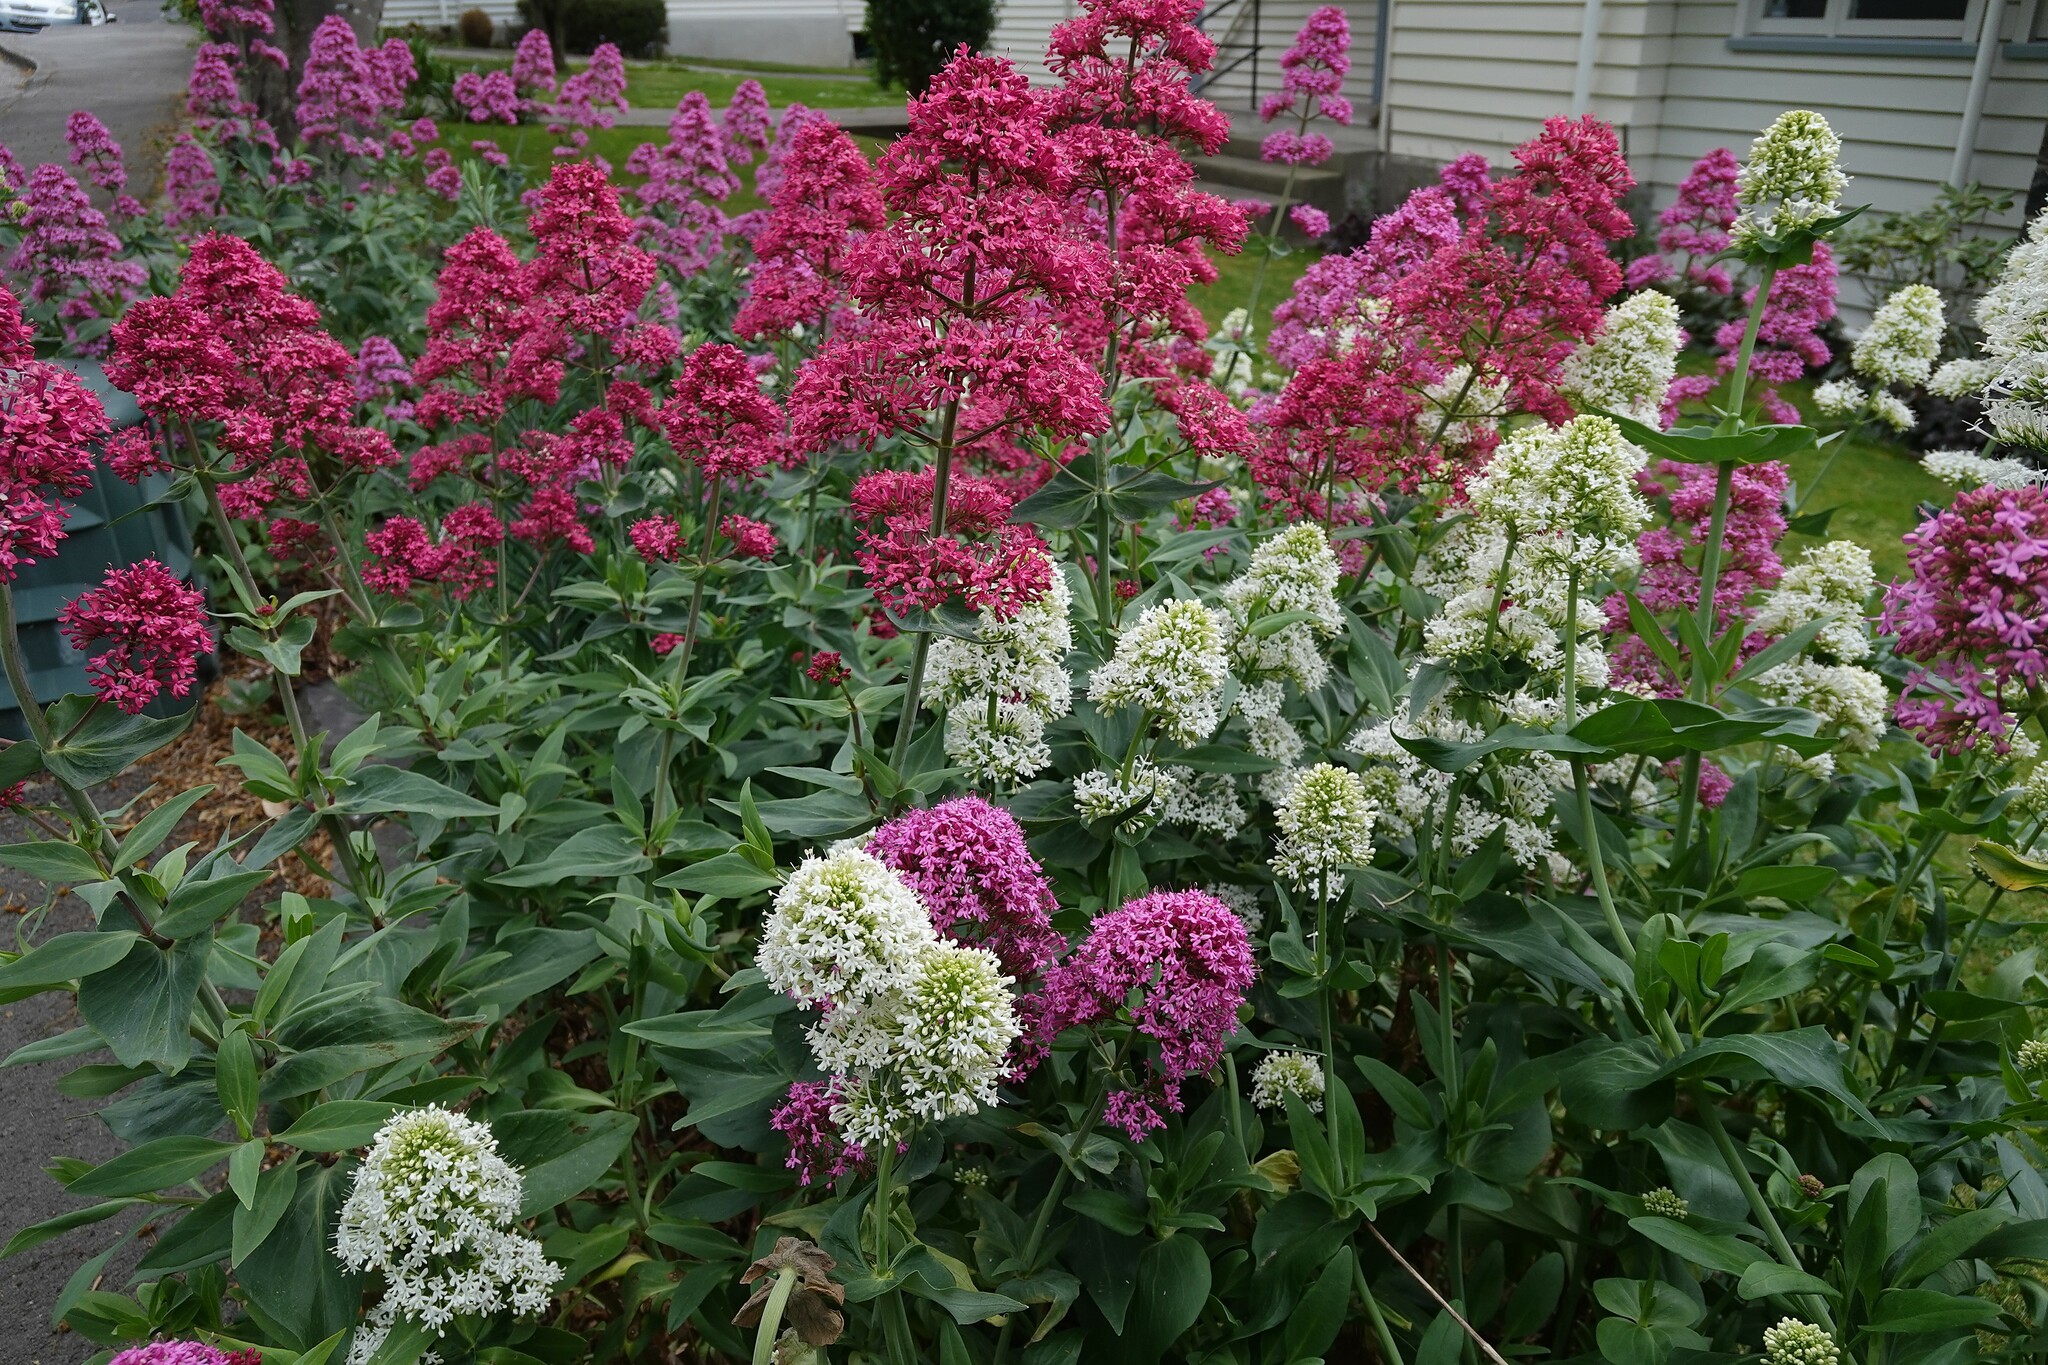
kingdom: Plantae
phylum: Tracheophyta
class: Magnoliopsida
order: Dipsacales
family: Caprifoliaceae
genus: Centranthus
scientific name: Centranthus ruber
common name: Red valerian
